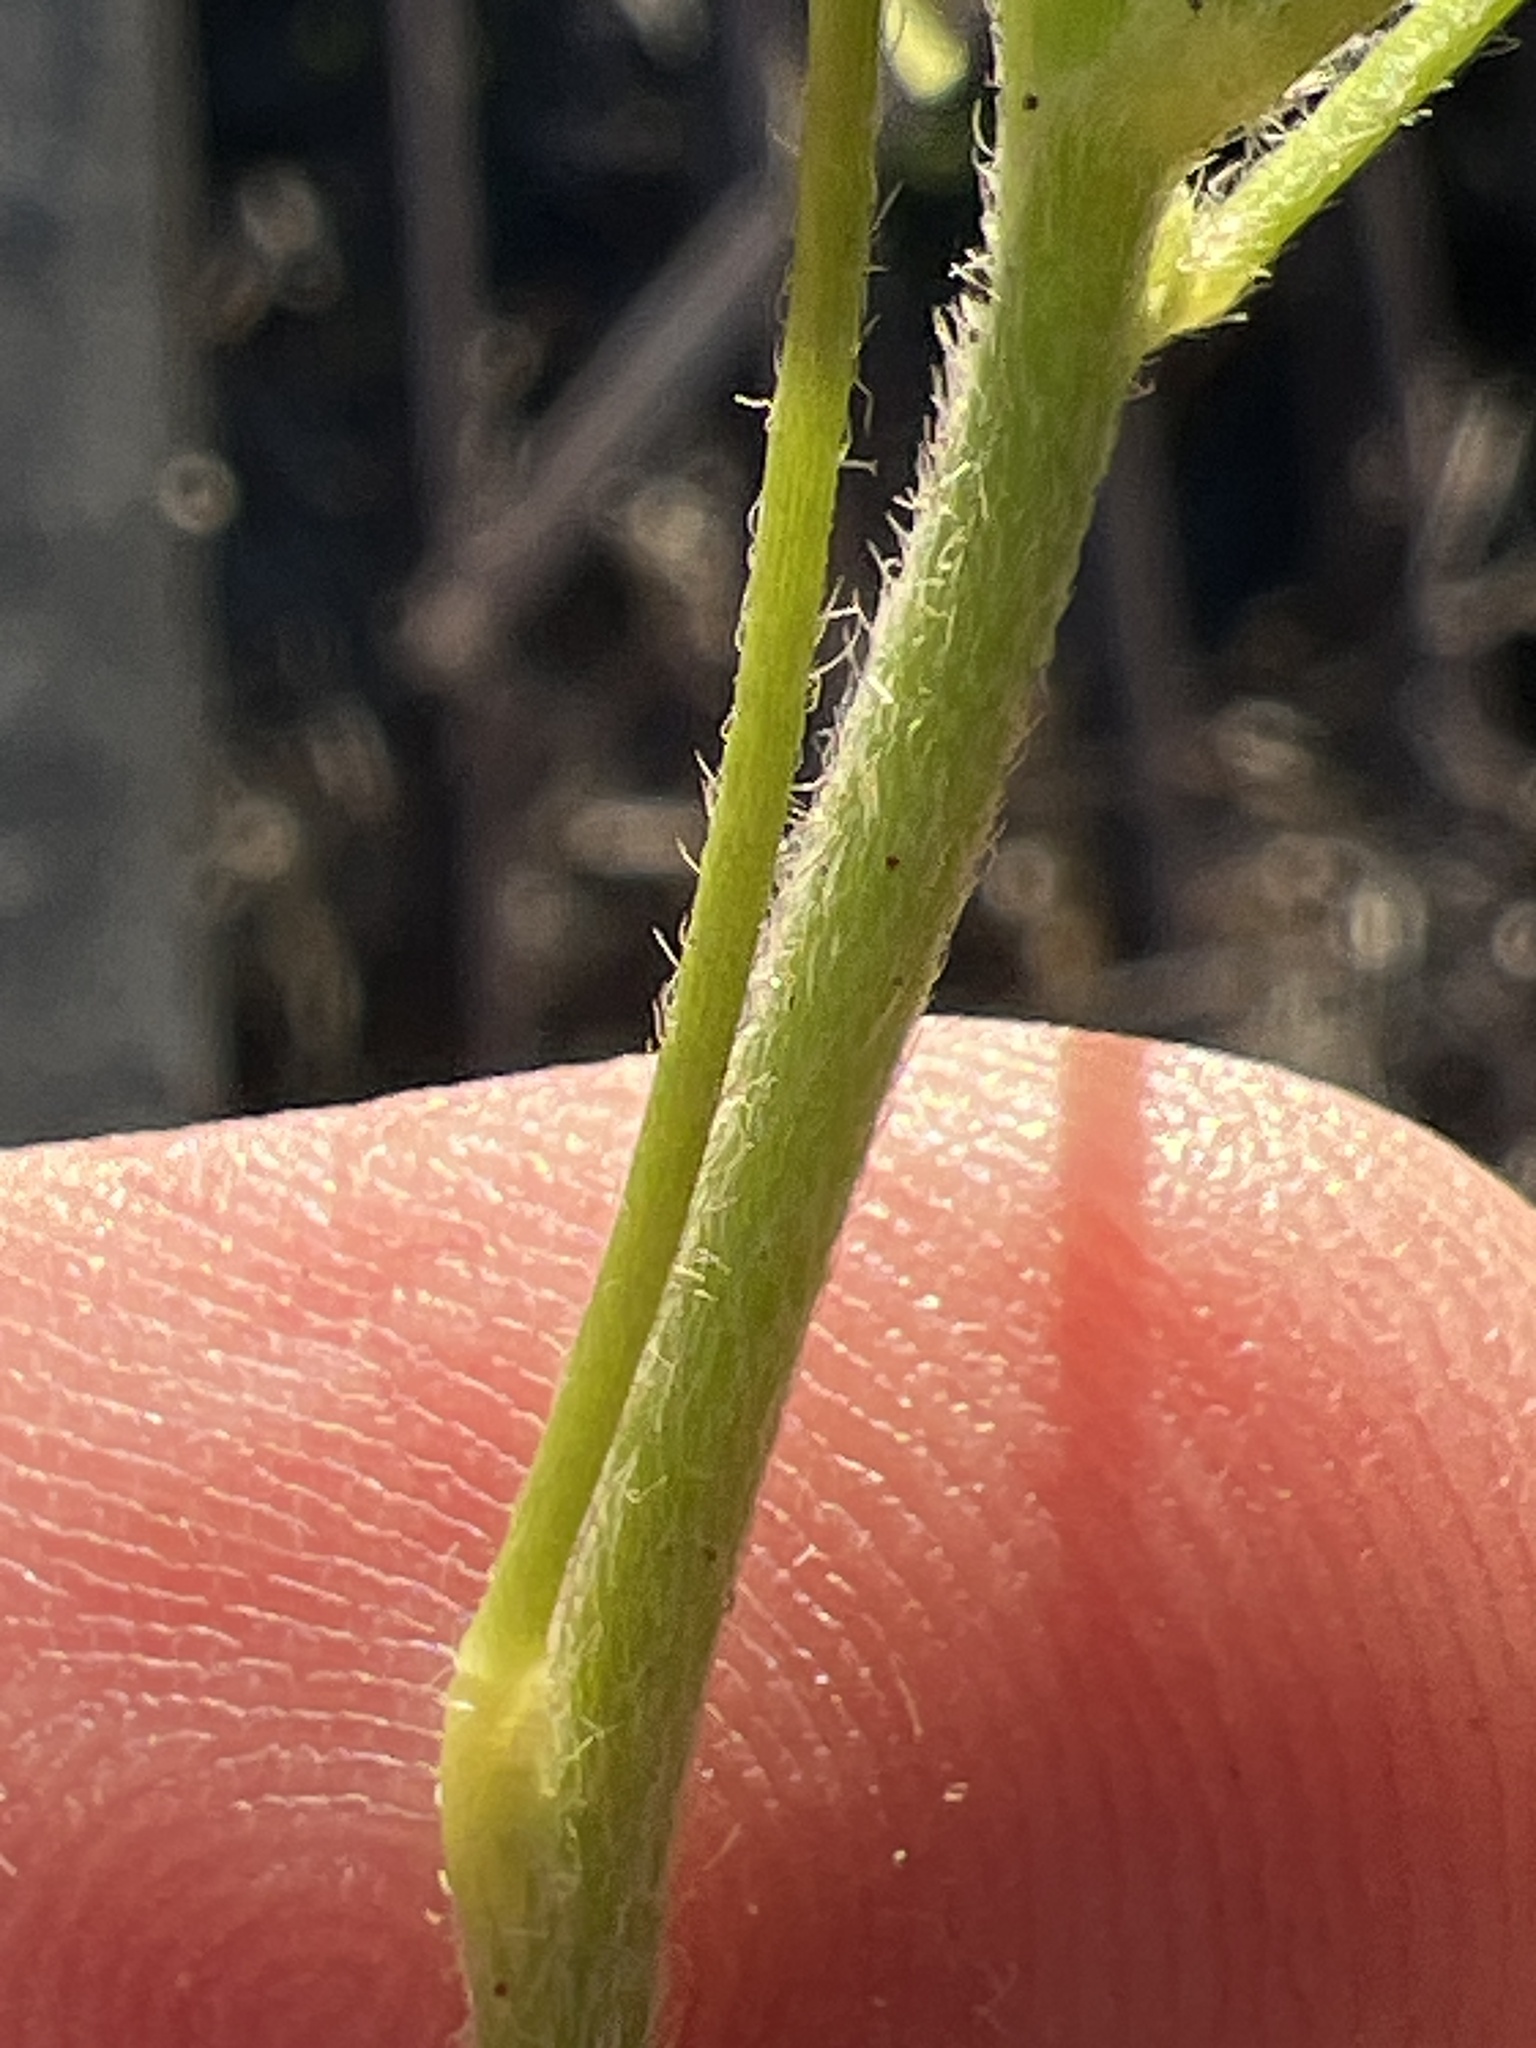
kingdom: Plantae
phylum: Tracheophyta
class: Magnoliopsida
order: Oxalidales
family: Oxalidaceae
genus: Oxalis
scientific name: Oxalis dillenii
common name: Sussex yellow-sorrel
